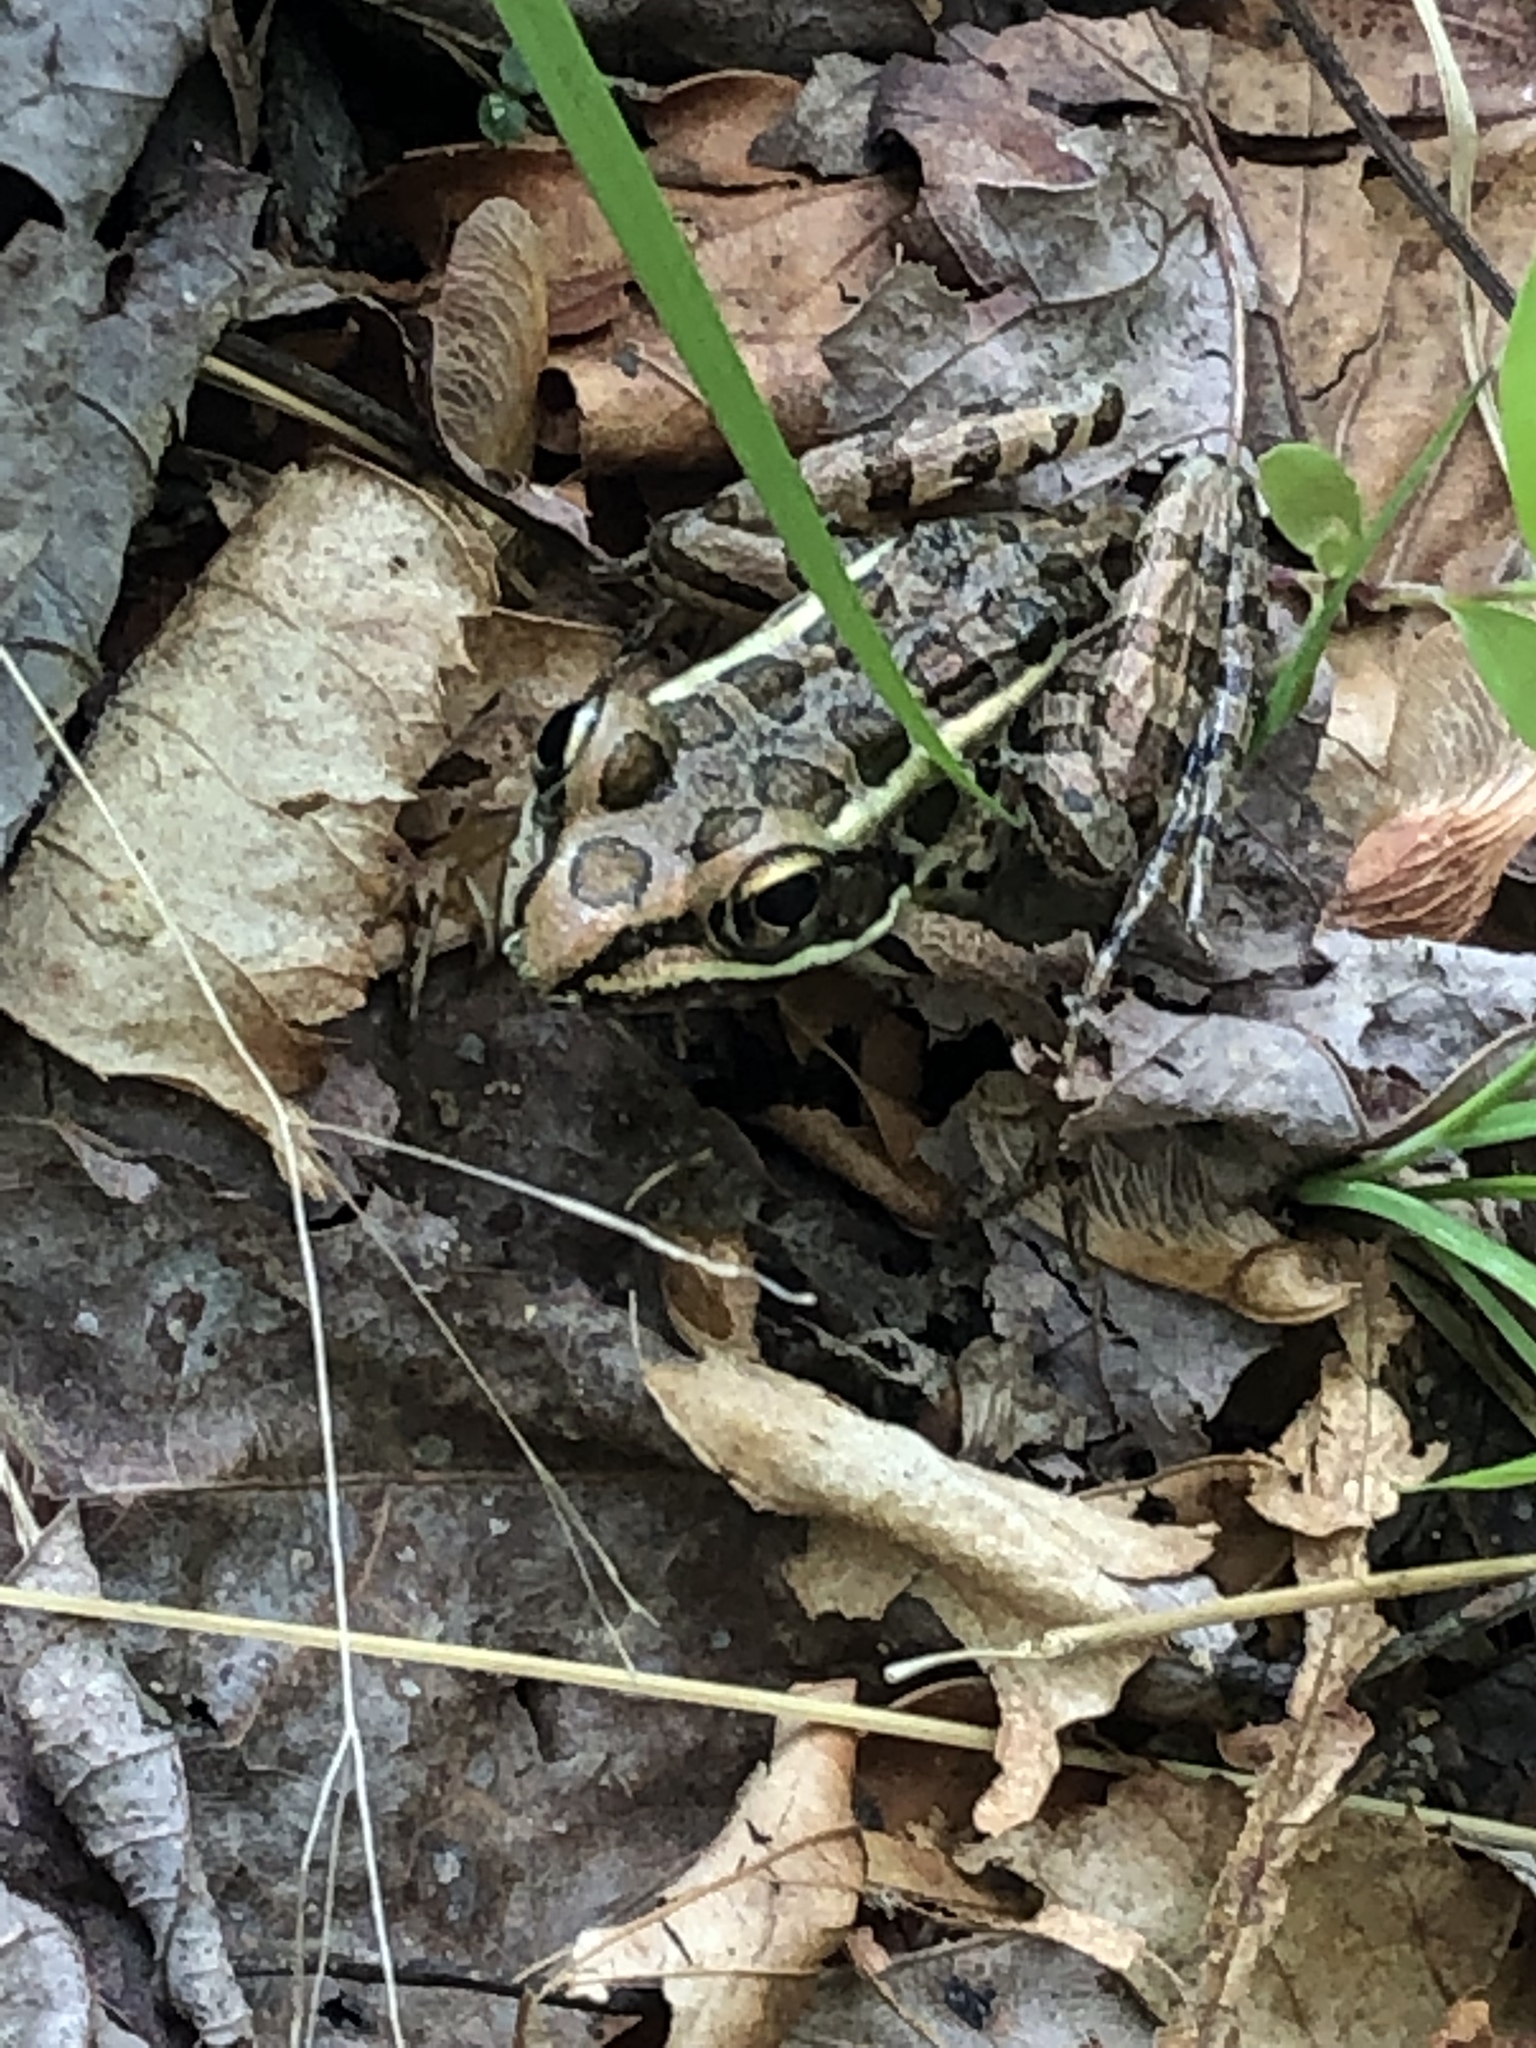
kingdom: Animalia
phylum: Chordata
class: Amphibia
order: Anura
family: Ranidae
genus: Lithobates
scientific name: Lithobates palustris
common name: Pickerel frog
